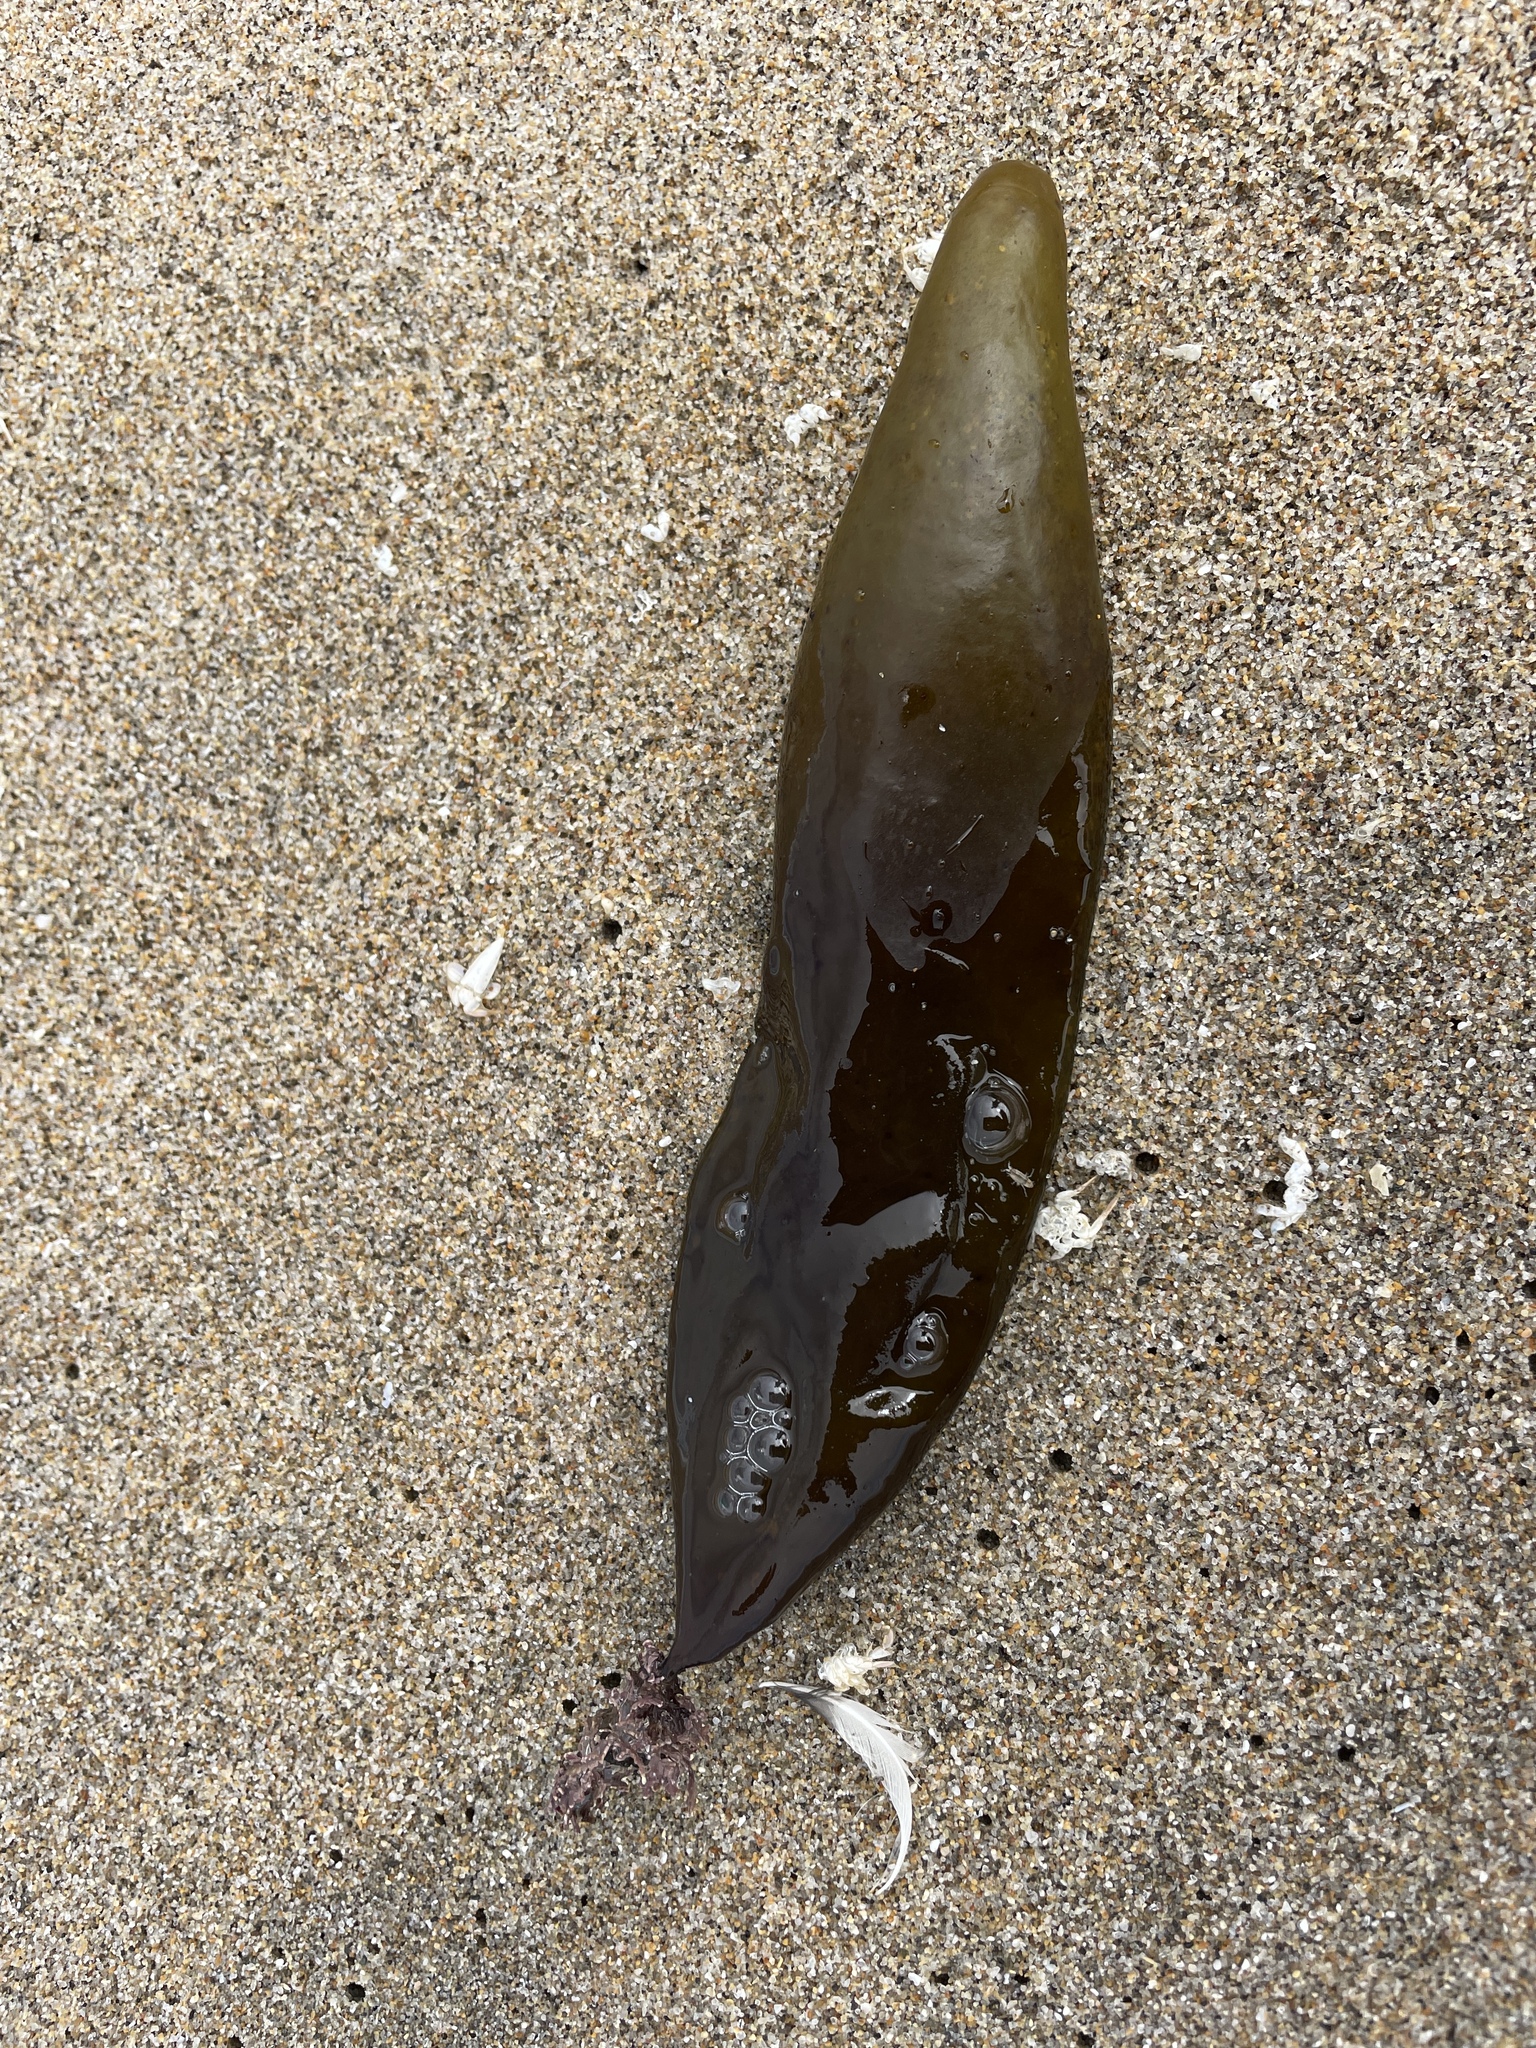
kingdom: Plantae
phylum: Rhodophyta
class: Florideophyceae
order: Palmariales
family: Palmariaceae
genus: Halosaccion
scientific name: Halosaccion glandiforme
